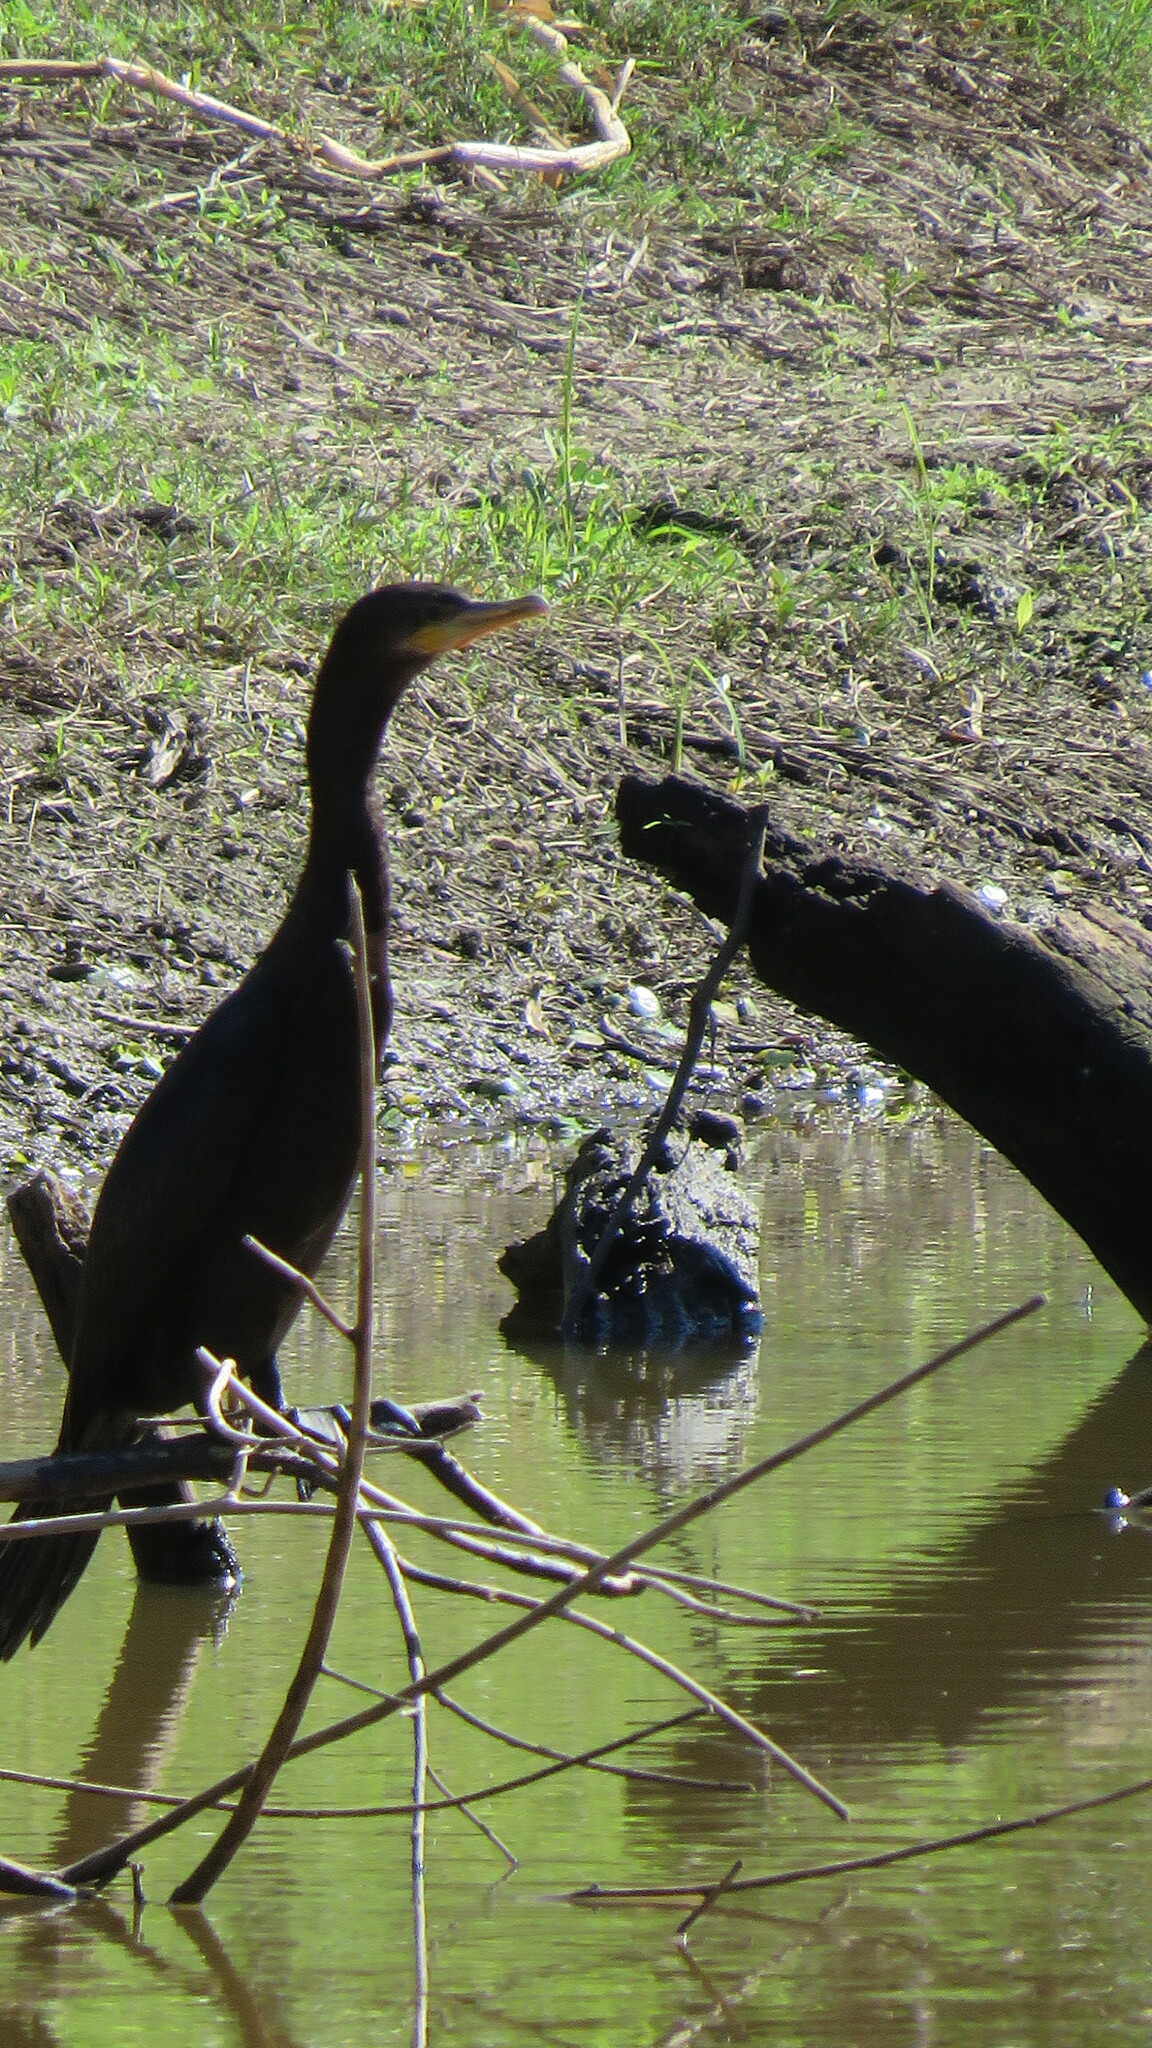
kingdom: Animalia
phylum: Chordata
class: Aves
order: Suliformes
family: Phalacrocoracidae
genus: Phalacrocorax
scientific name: Phalacrocorax brasilianus
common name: Neotropic cormorant
